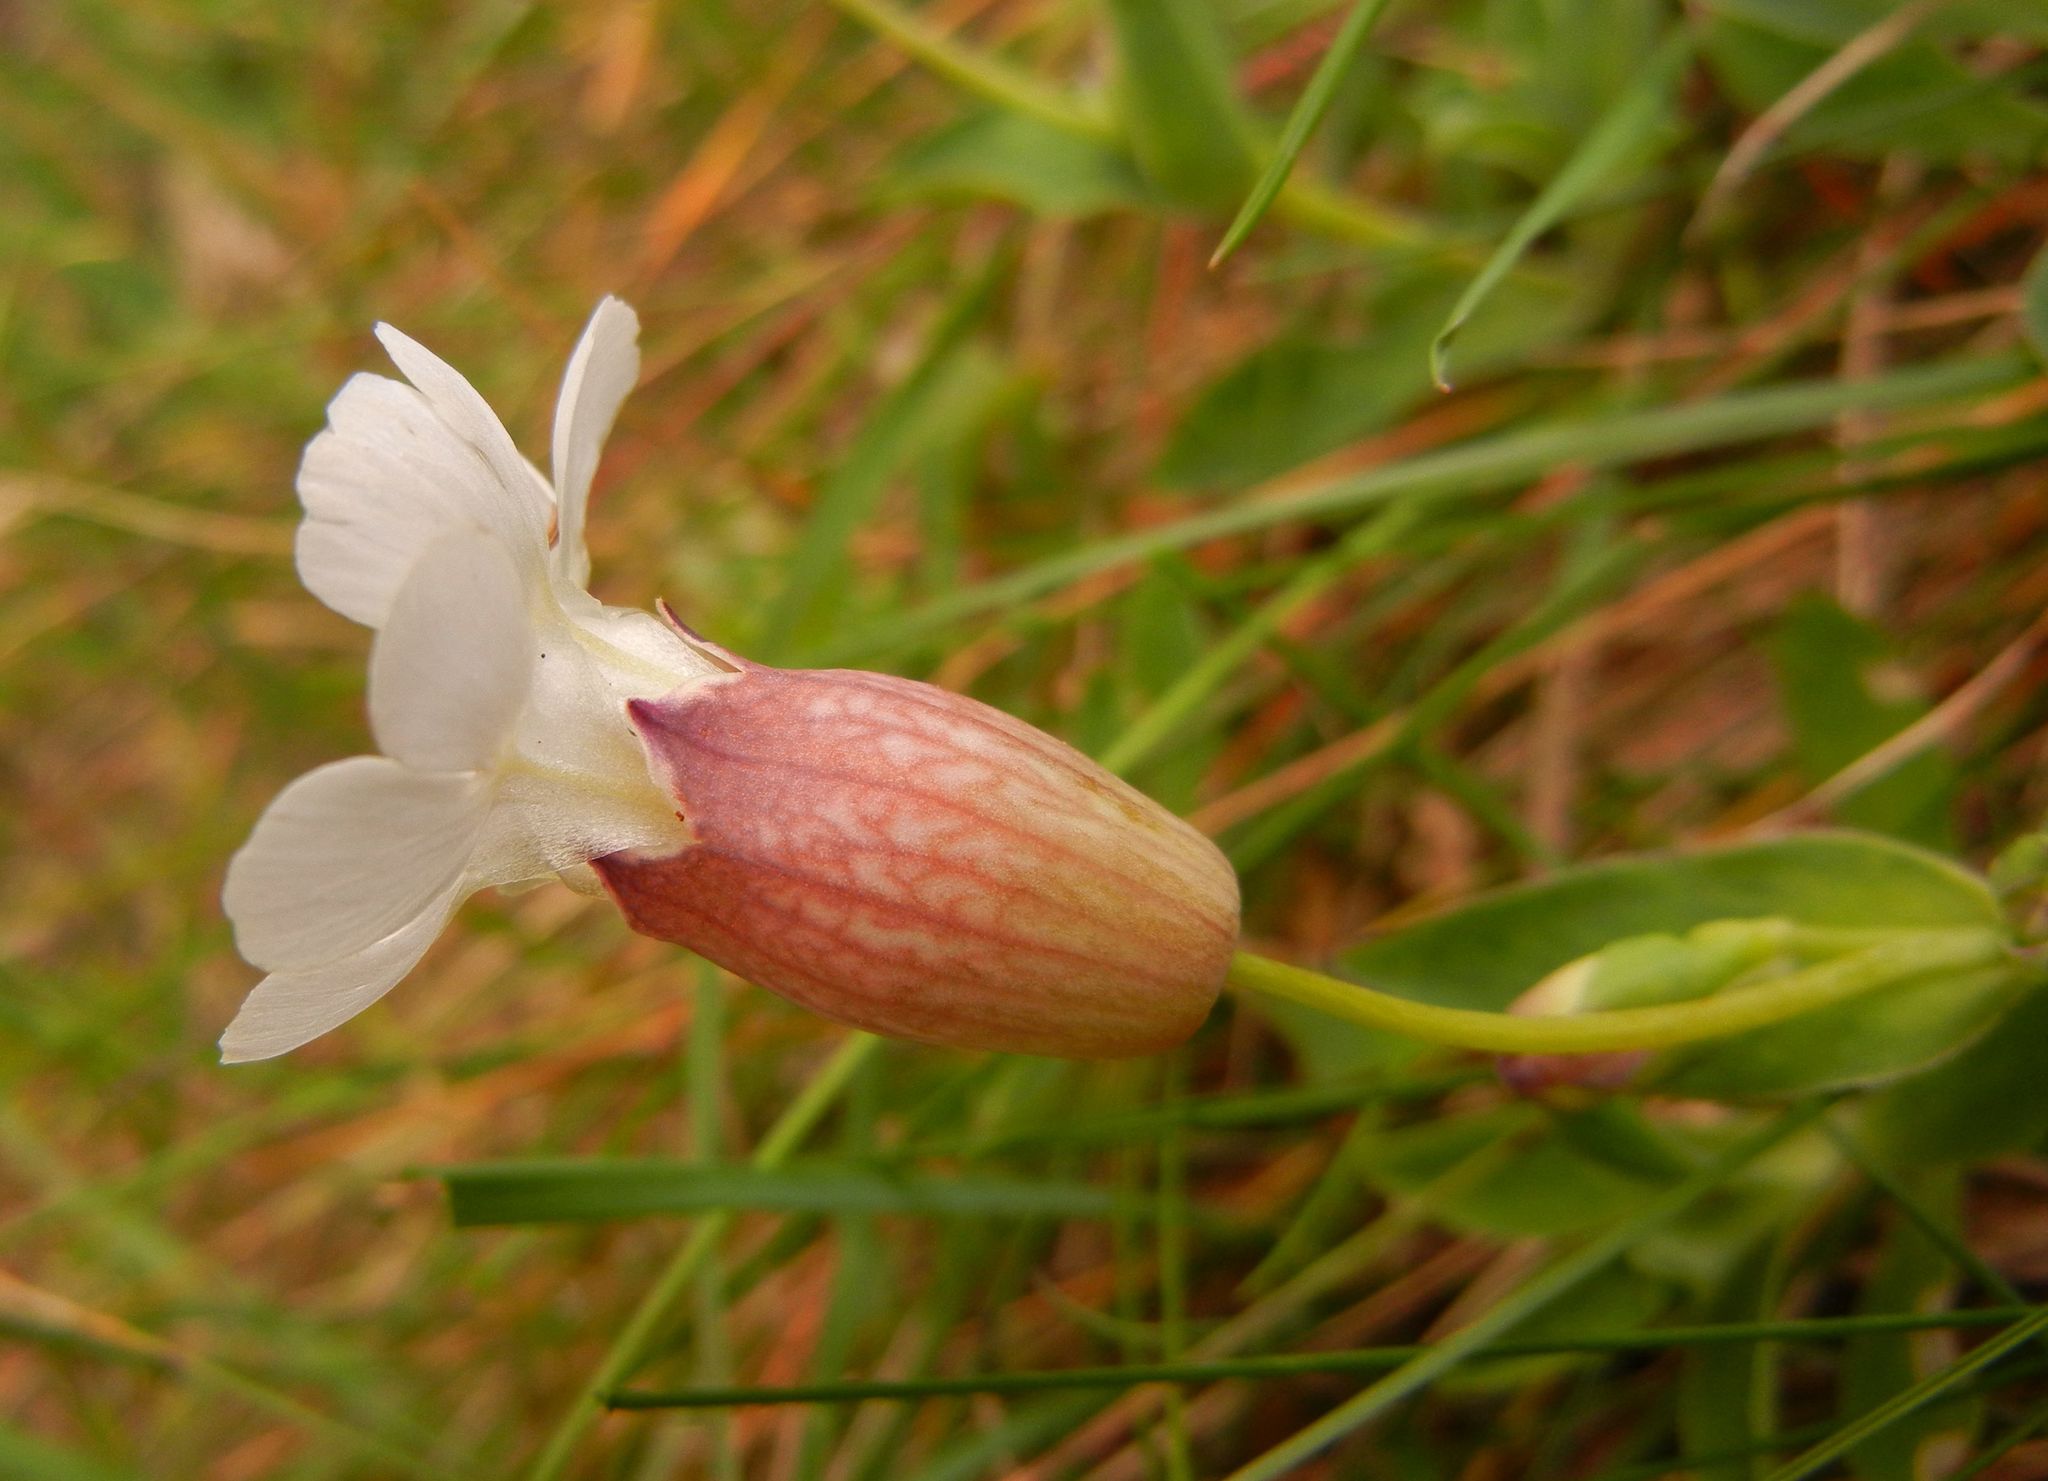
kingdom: Plantae
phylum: Tracheophyta
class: Magnoliopsida
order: Caryophyllales
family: Caryophyllaceae
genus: Silene
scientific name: Silene uniflora
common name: Sea campion
